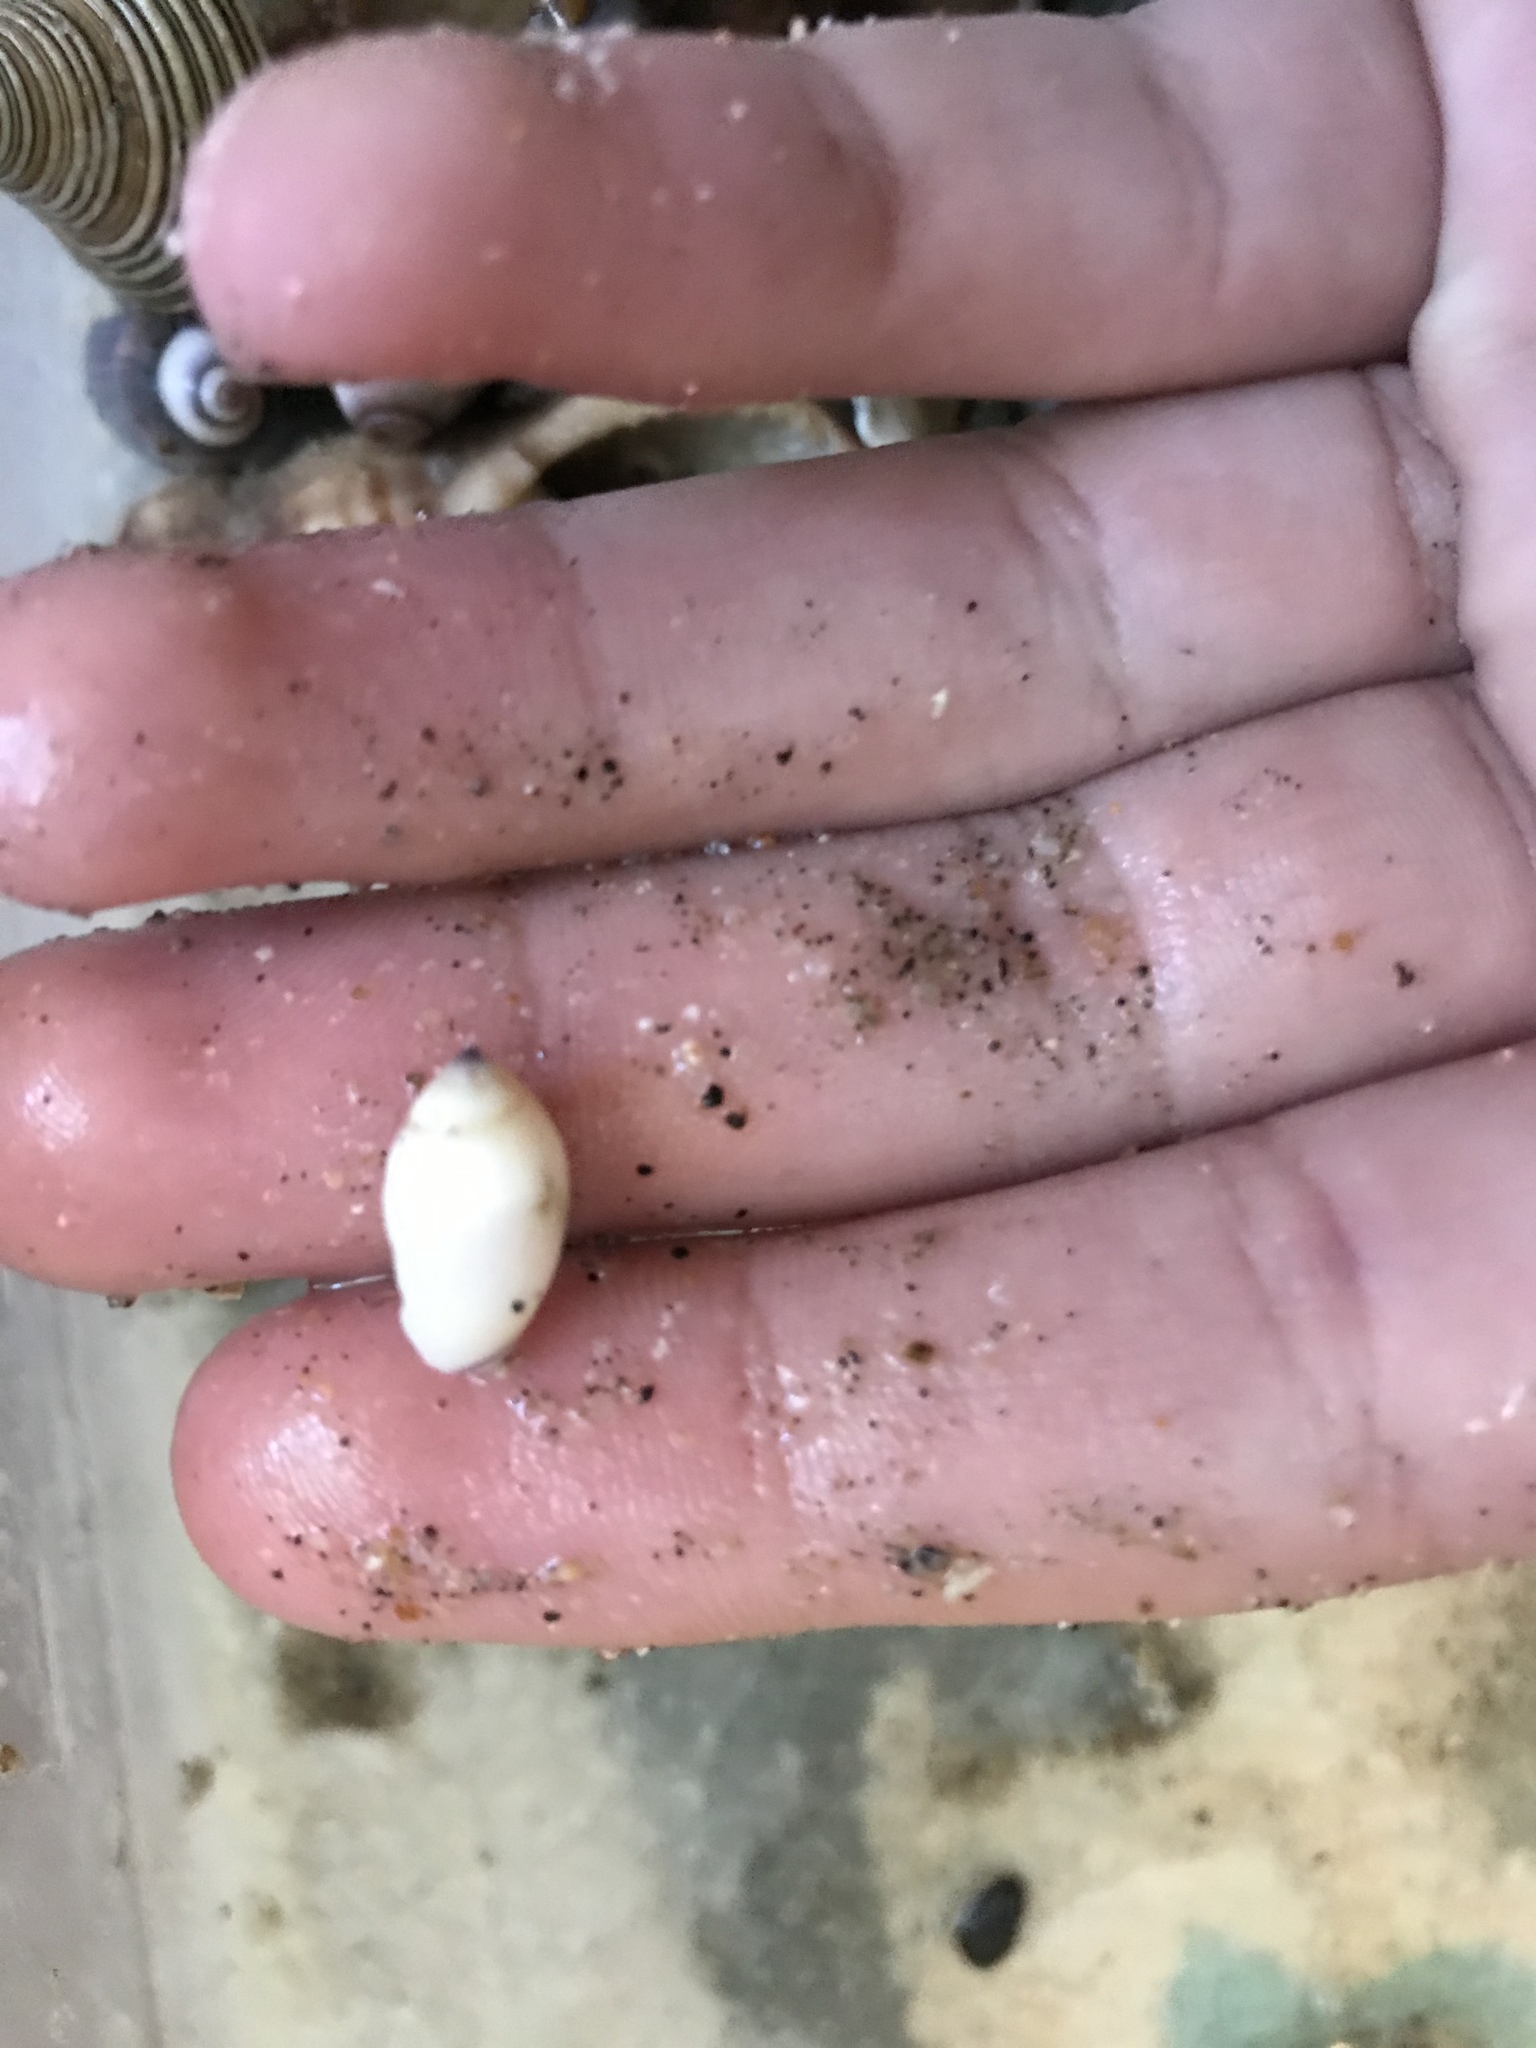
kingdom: Animalia
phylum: Mollusca
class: Gastropoda
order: Neogastropoda
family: Olividae
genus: Callianax
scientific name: Callianax biplicata
